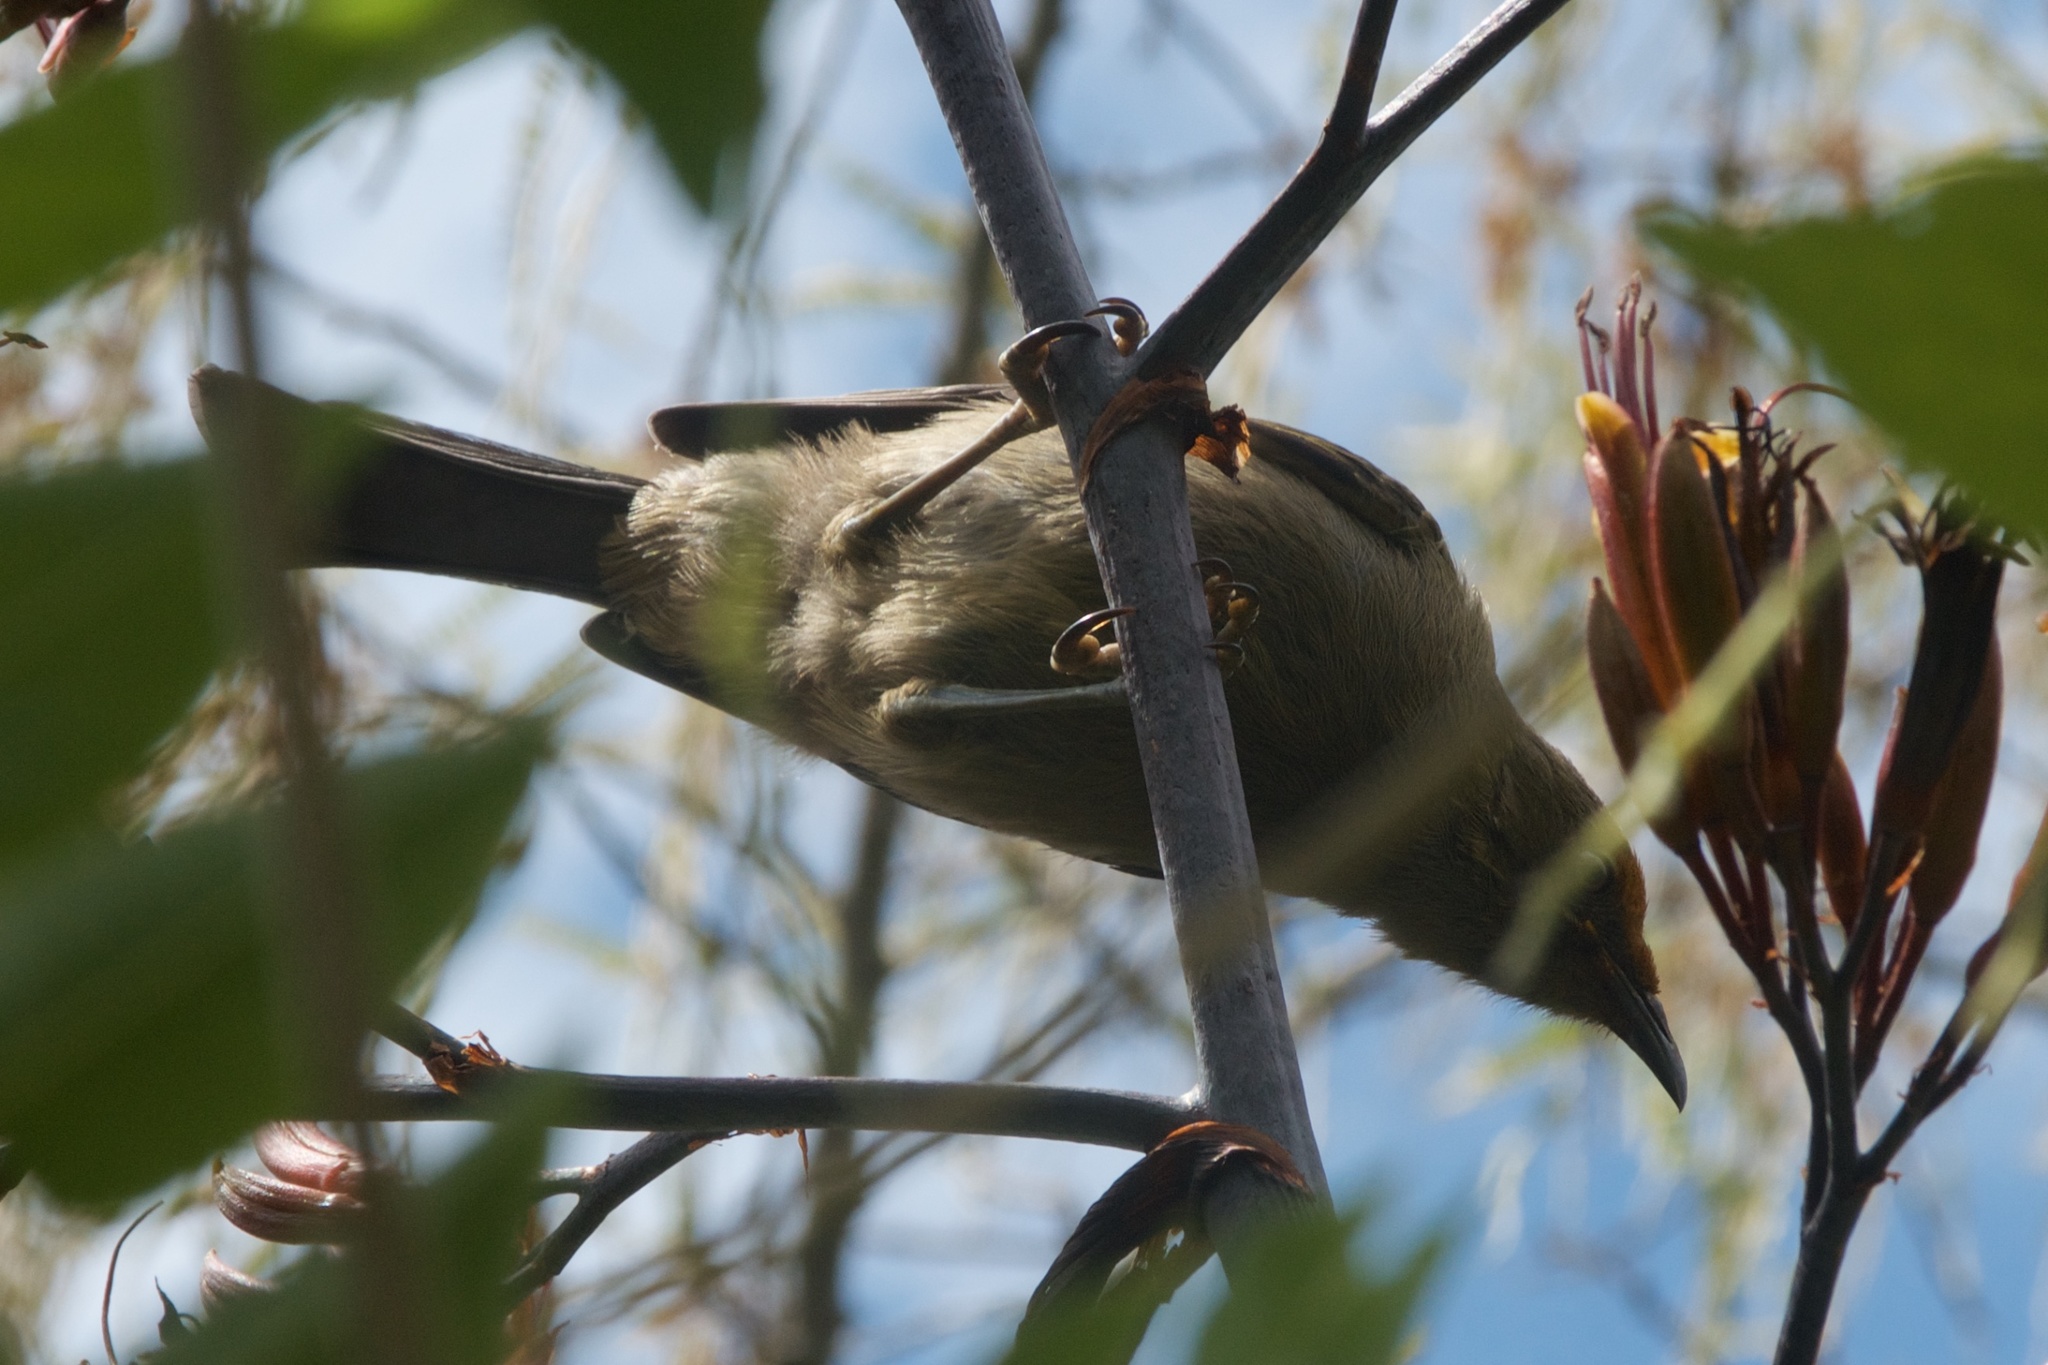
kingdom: Animalia
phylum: Chordata
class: Aves
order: Passeriformes
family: Meliphagidae
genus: Anthornis
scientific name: Anthornis melanura
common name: New zealand bellbird
